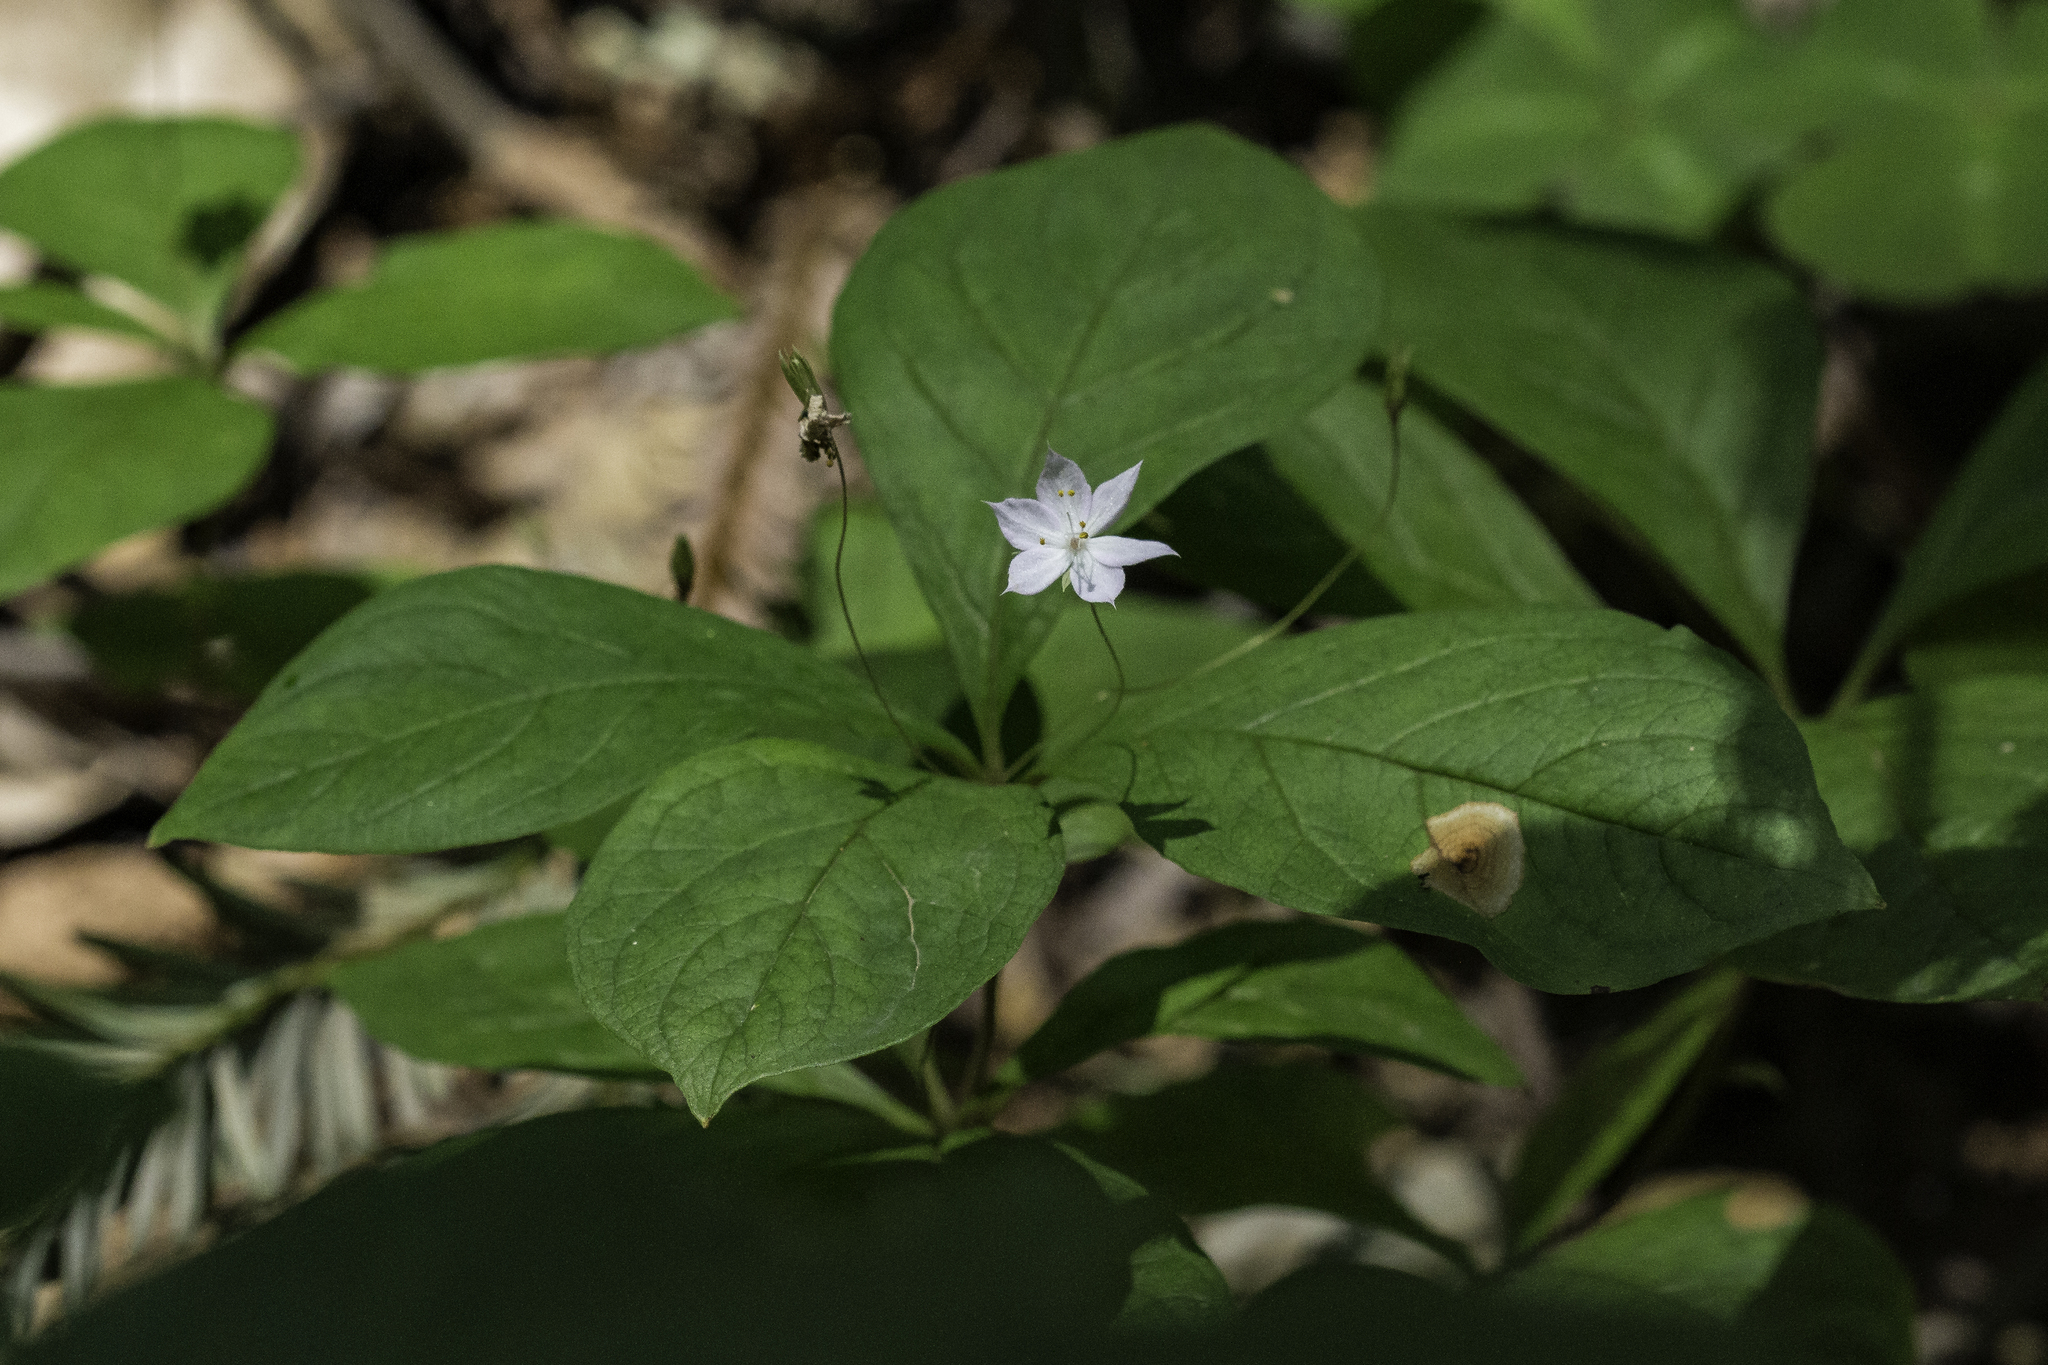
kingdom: Plantae
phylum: Tracheophyta
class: Magnoliopsida
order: Ericales
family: Primulaceae
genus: Lysimachia
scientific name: Lysimachia latifolia
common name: Pacific starflower
